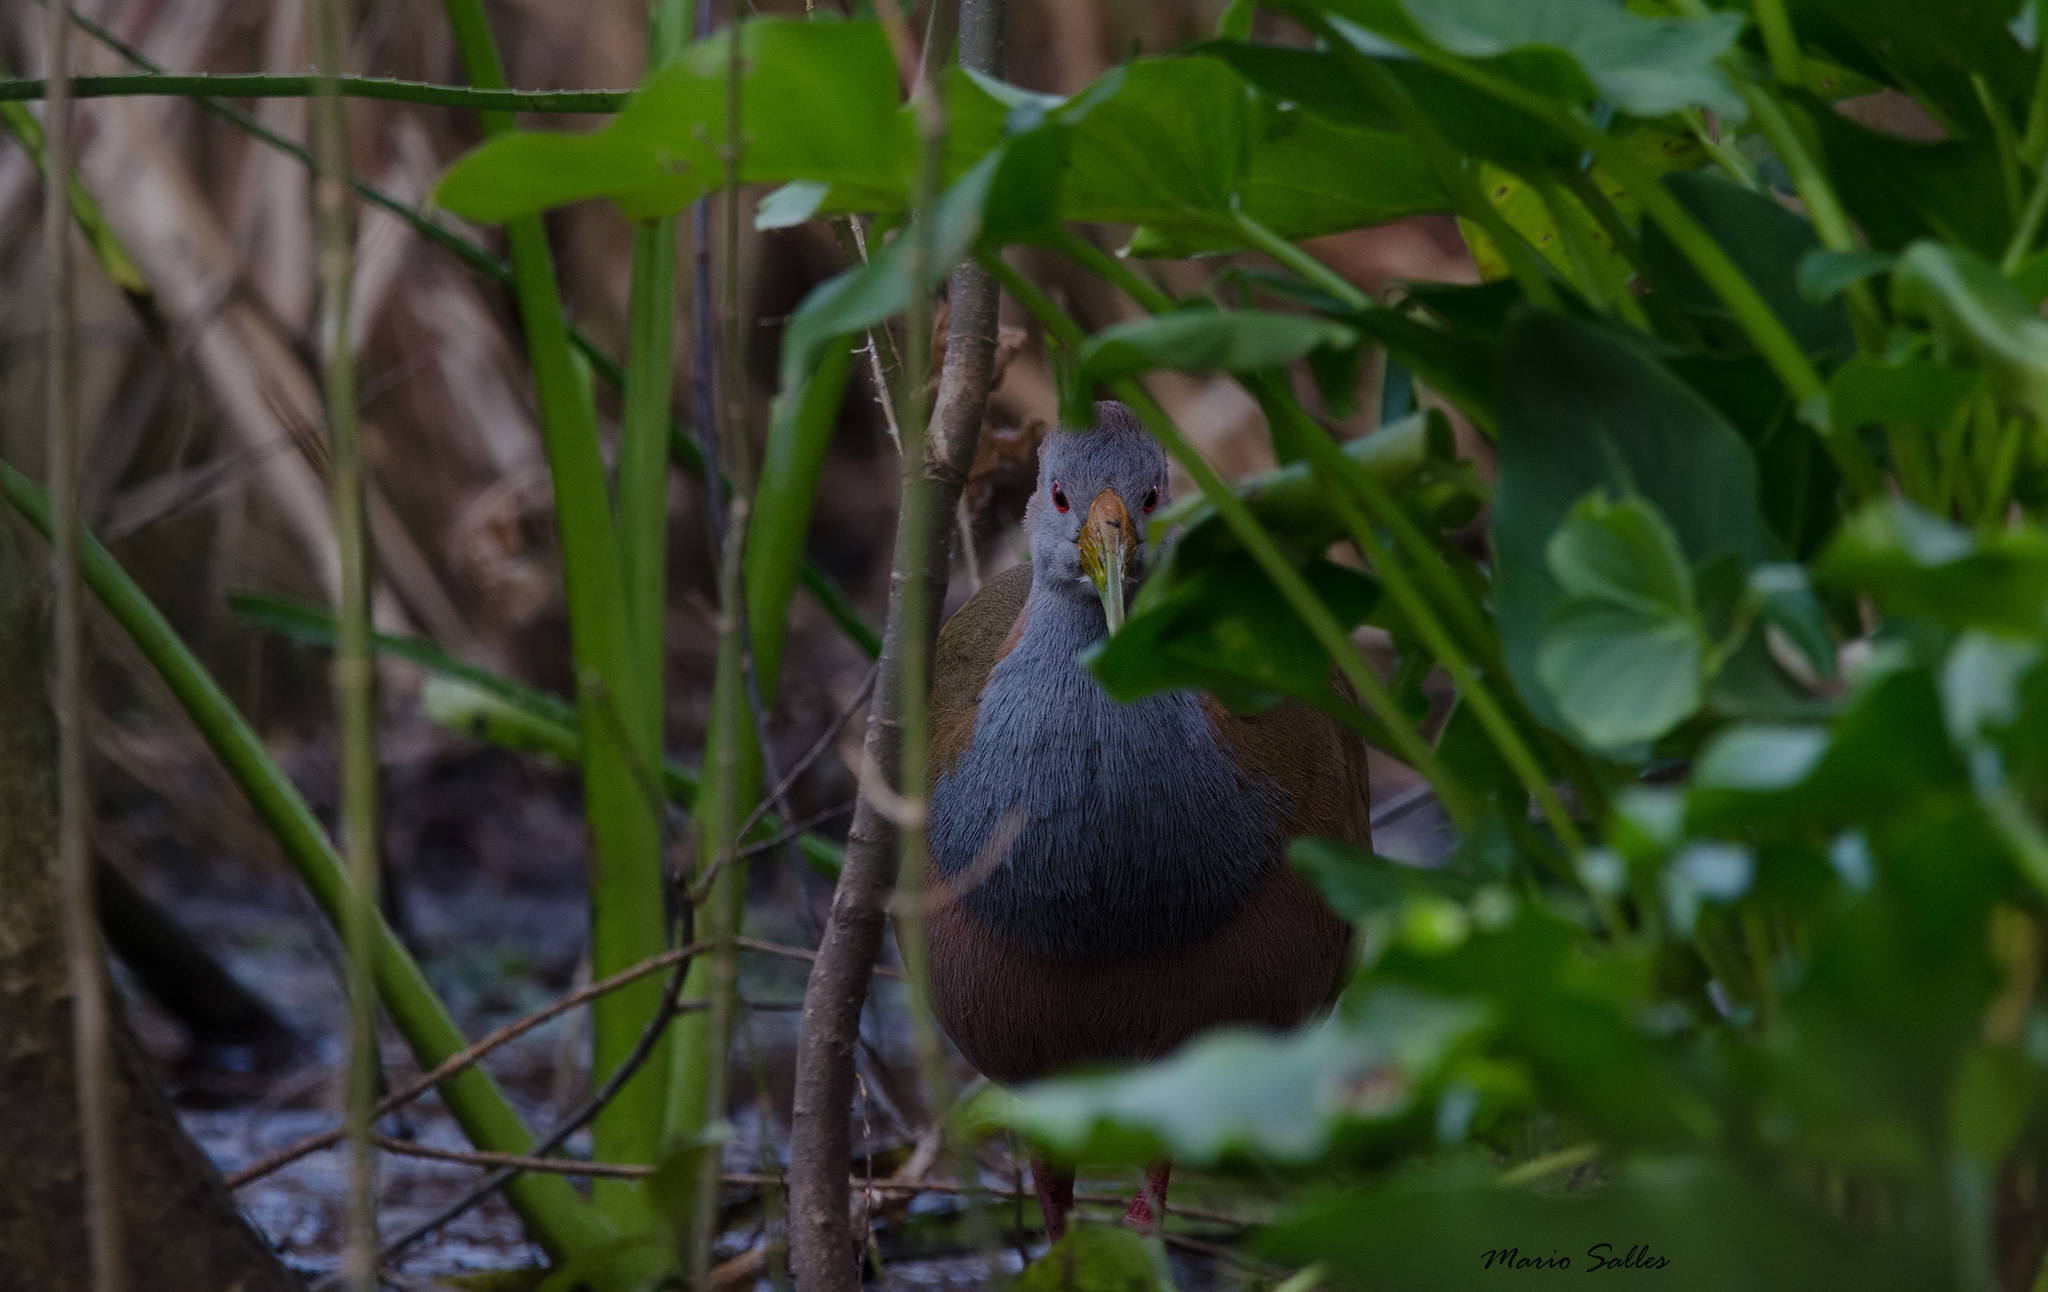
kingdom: Animalia
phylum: Chordata
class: Aves
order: Gruiformes
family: Rallidae
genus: Aramides
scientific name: Aramides ypecaha
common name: Giant wood rail
